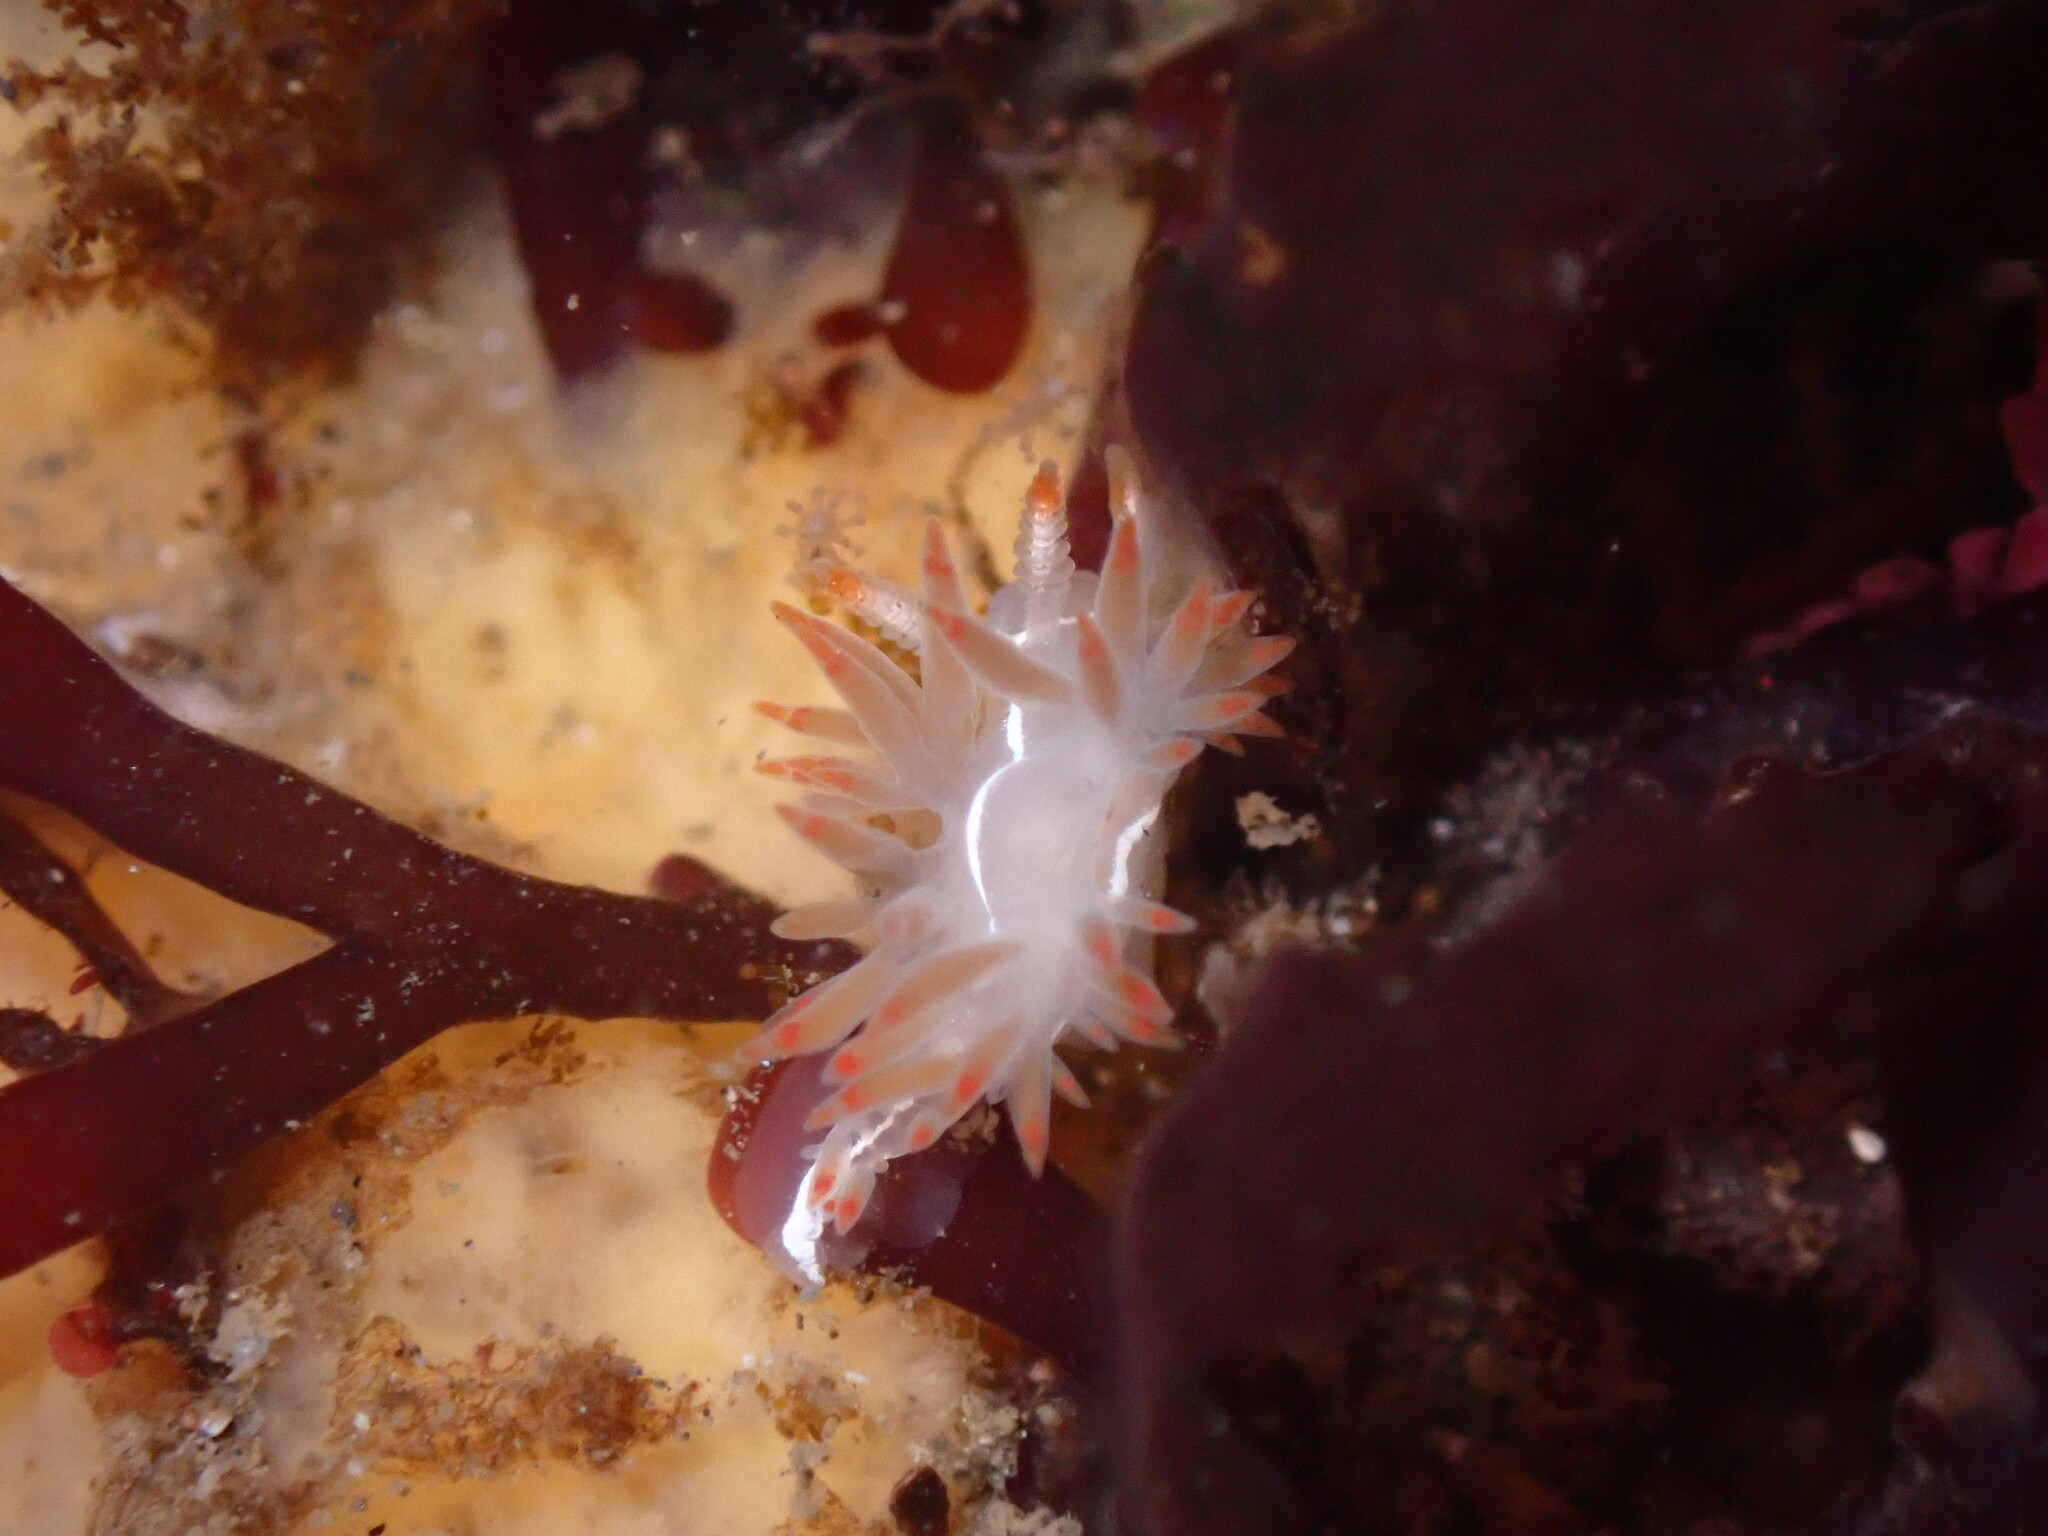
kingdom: Animalia
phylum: Mollusca
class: Gastropoda
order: Nudibranchia
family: Coryphellidae
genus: Coryphella
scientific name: Coryphella trilineata
